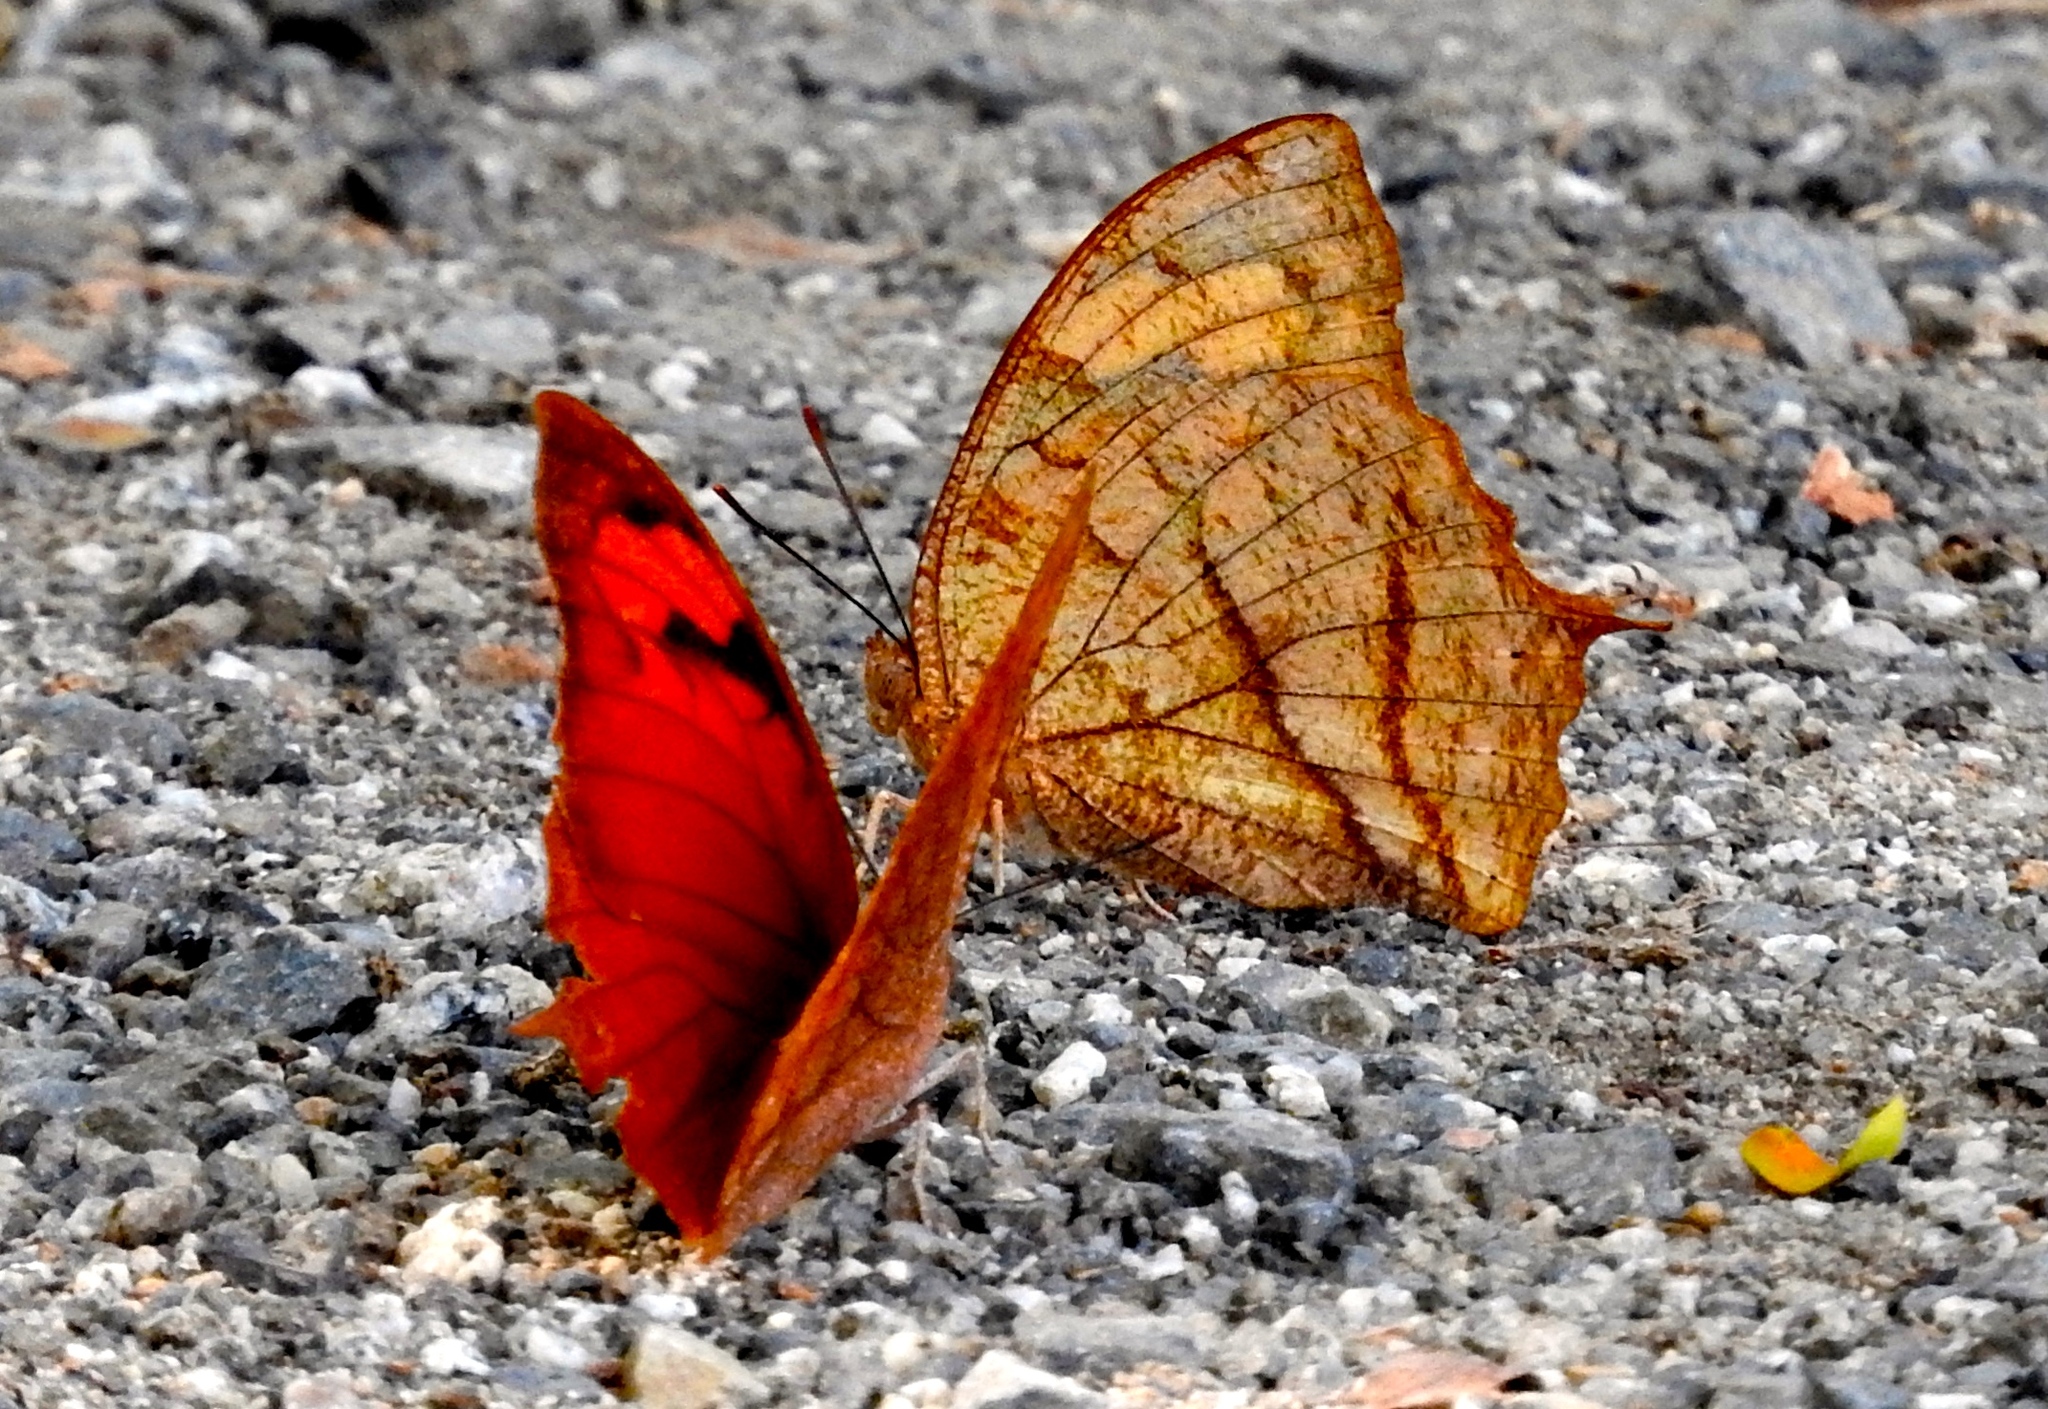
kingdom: Animalia
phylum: Arthropoda
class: Insecta
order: Lepidoptera
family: Nymphalidae
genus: Fountainea
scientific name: Fountainea
